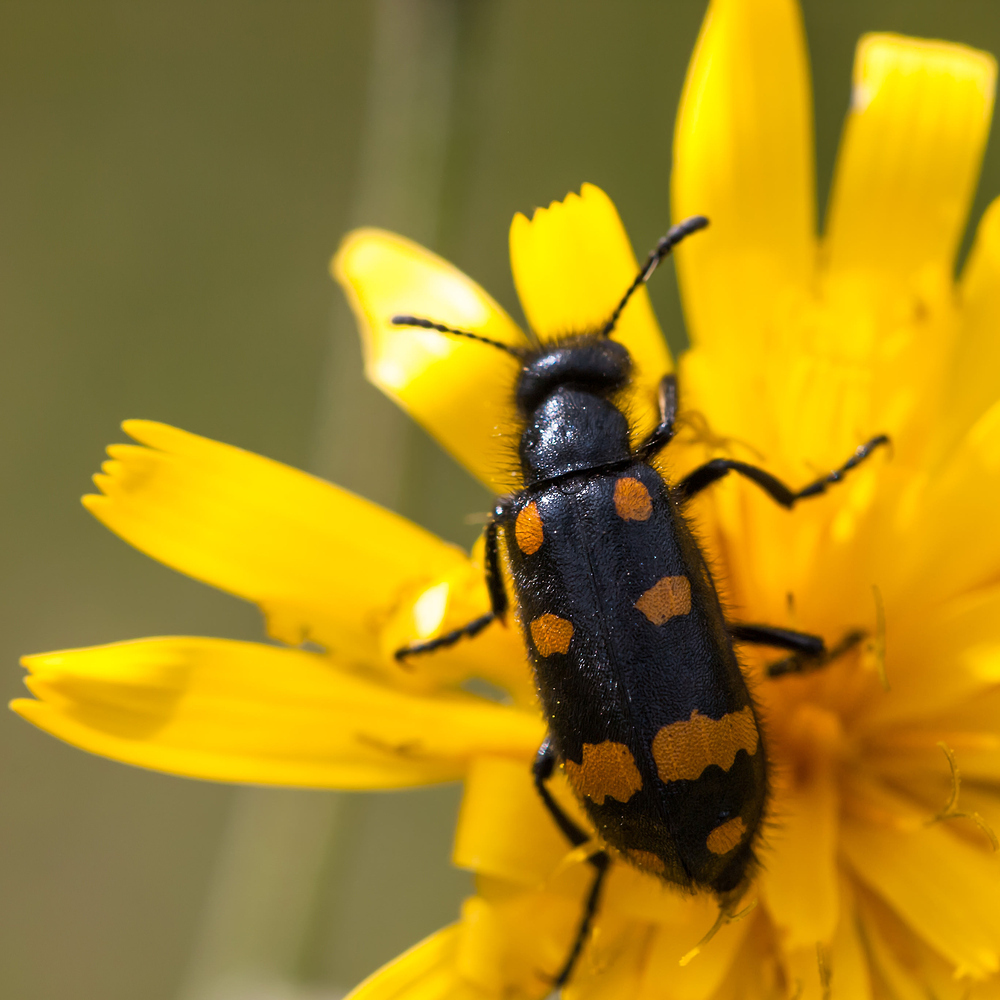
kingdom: Animalia
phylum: Arthropoda
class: Insecta
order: Coleoptera
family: Meloidae
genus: Hycleus
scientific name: Hycleus polymorphus
